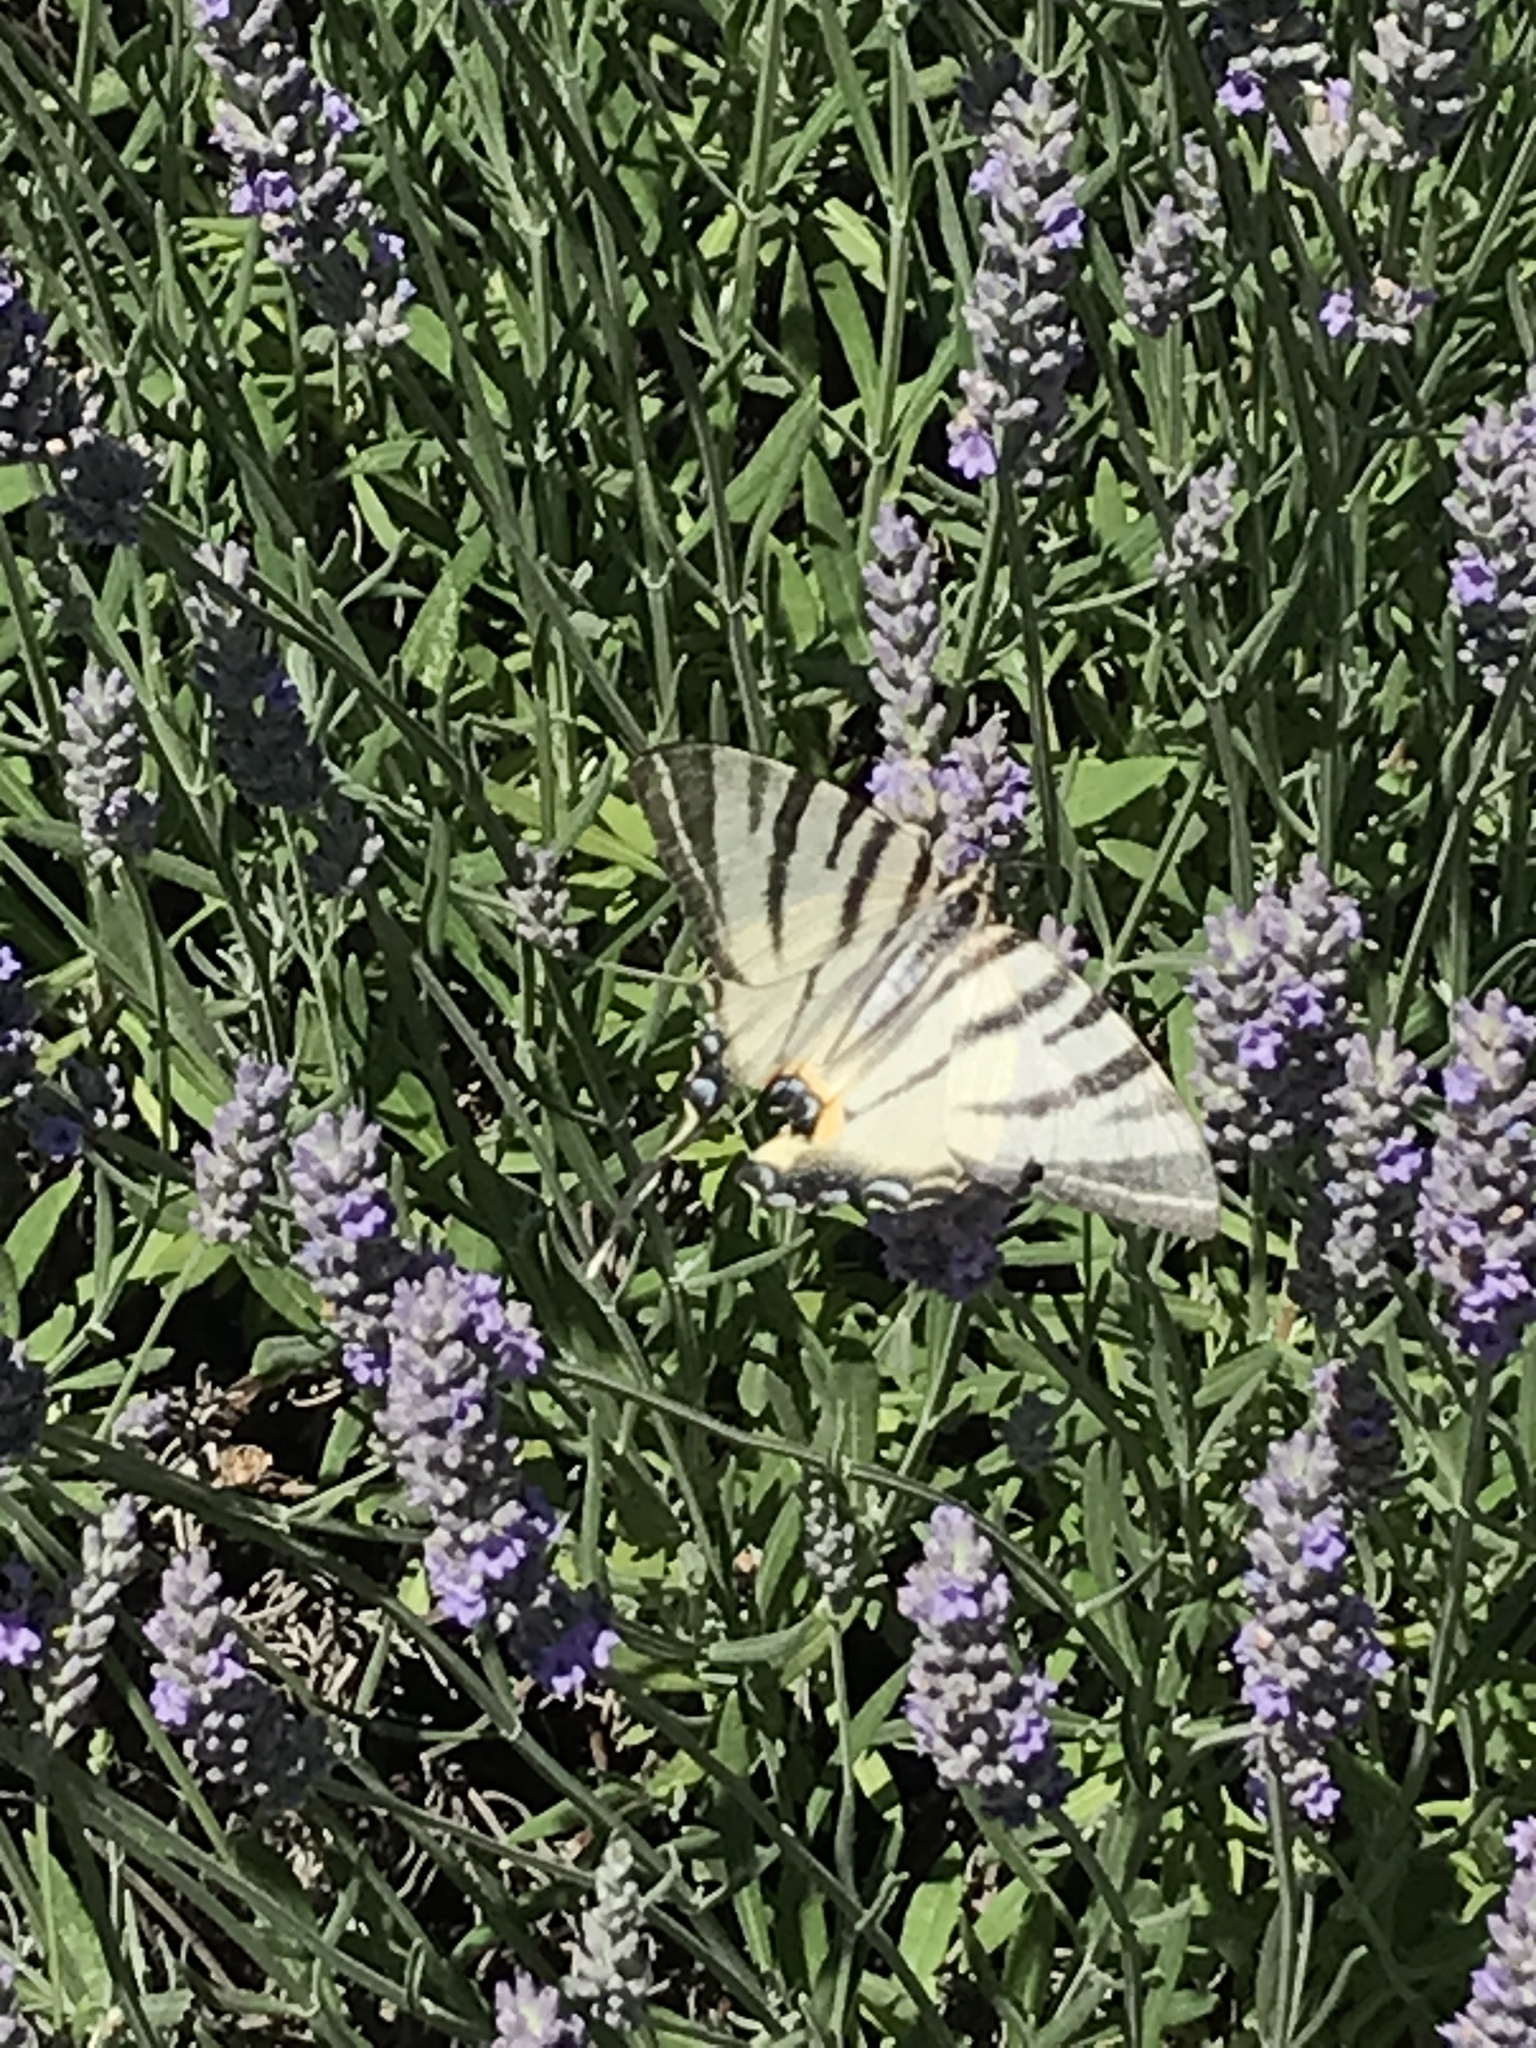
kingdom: Animalia
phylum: Arthropoda
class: Insecta
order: Lepidoptera
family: Papilionidae
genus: Iphiclides
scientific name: Iphiclides podalirius
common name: Scarce swallowtail
